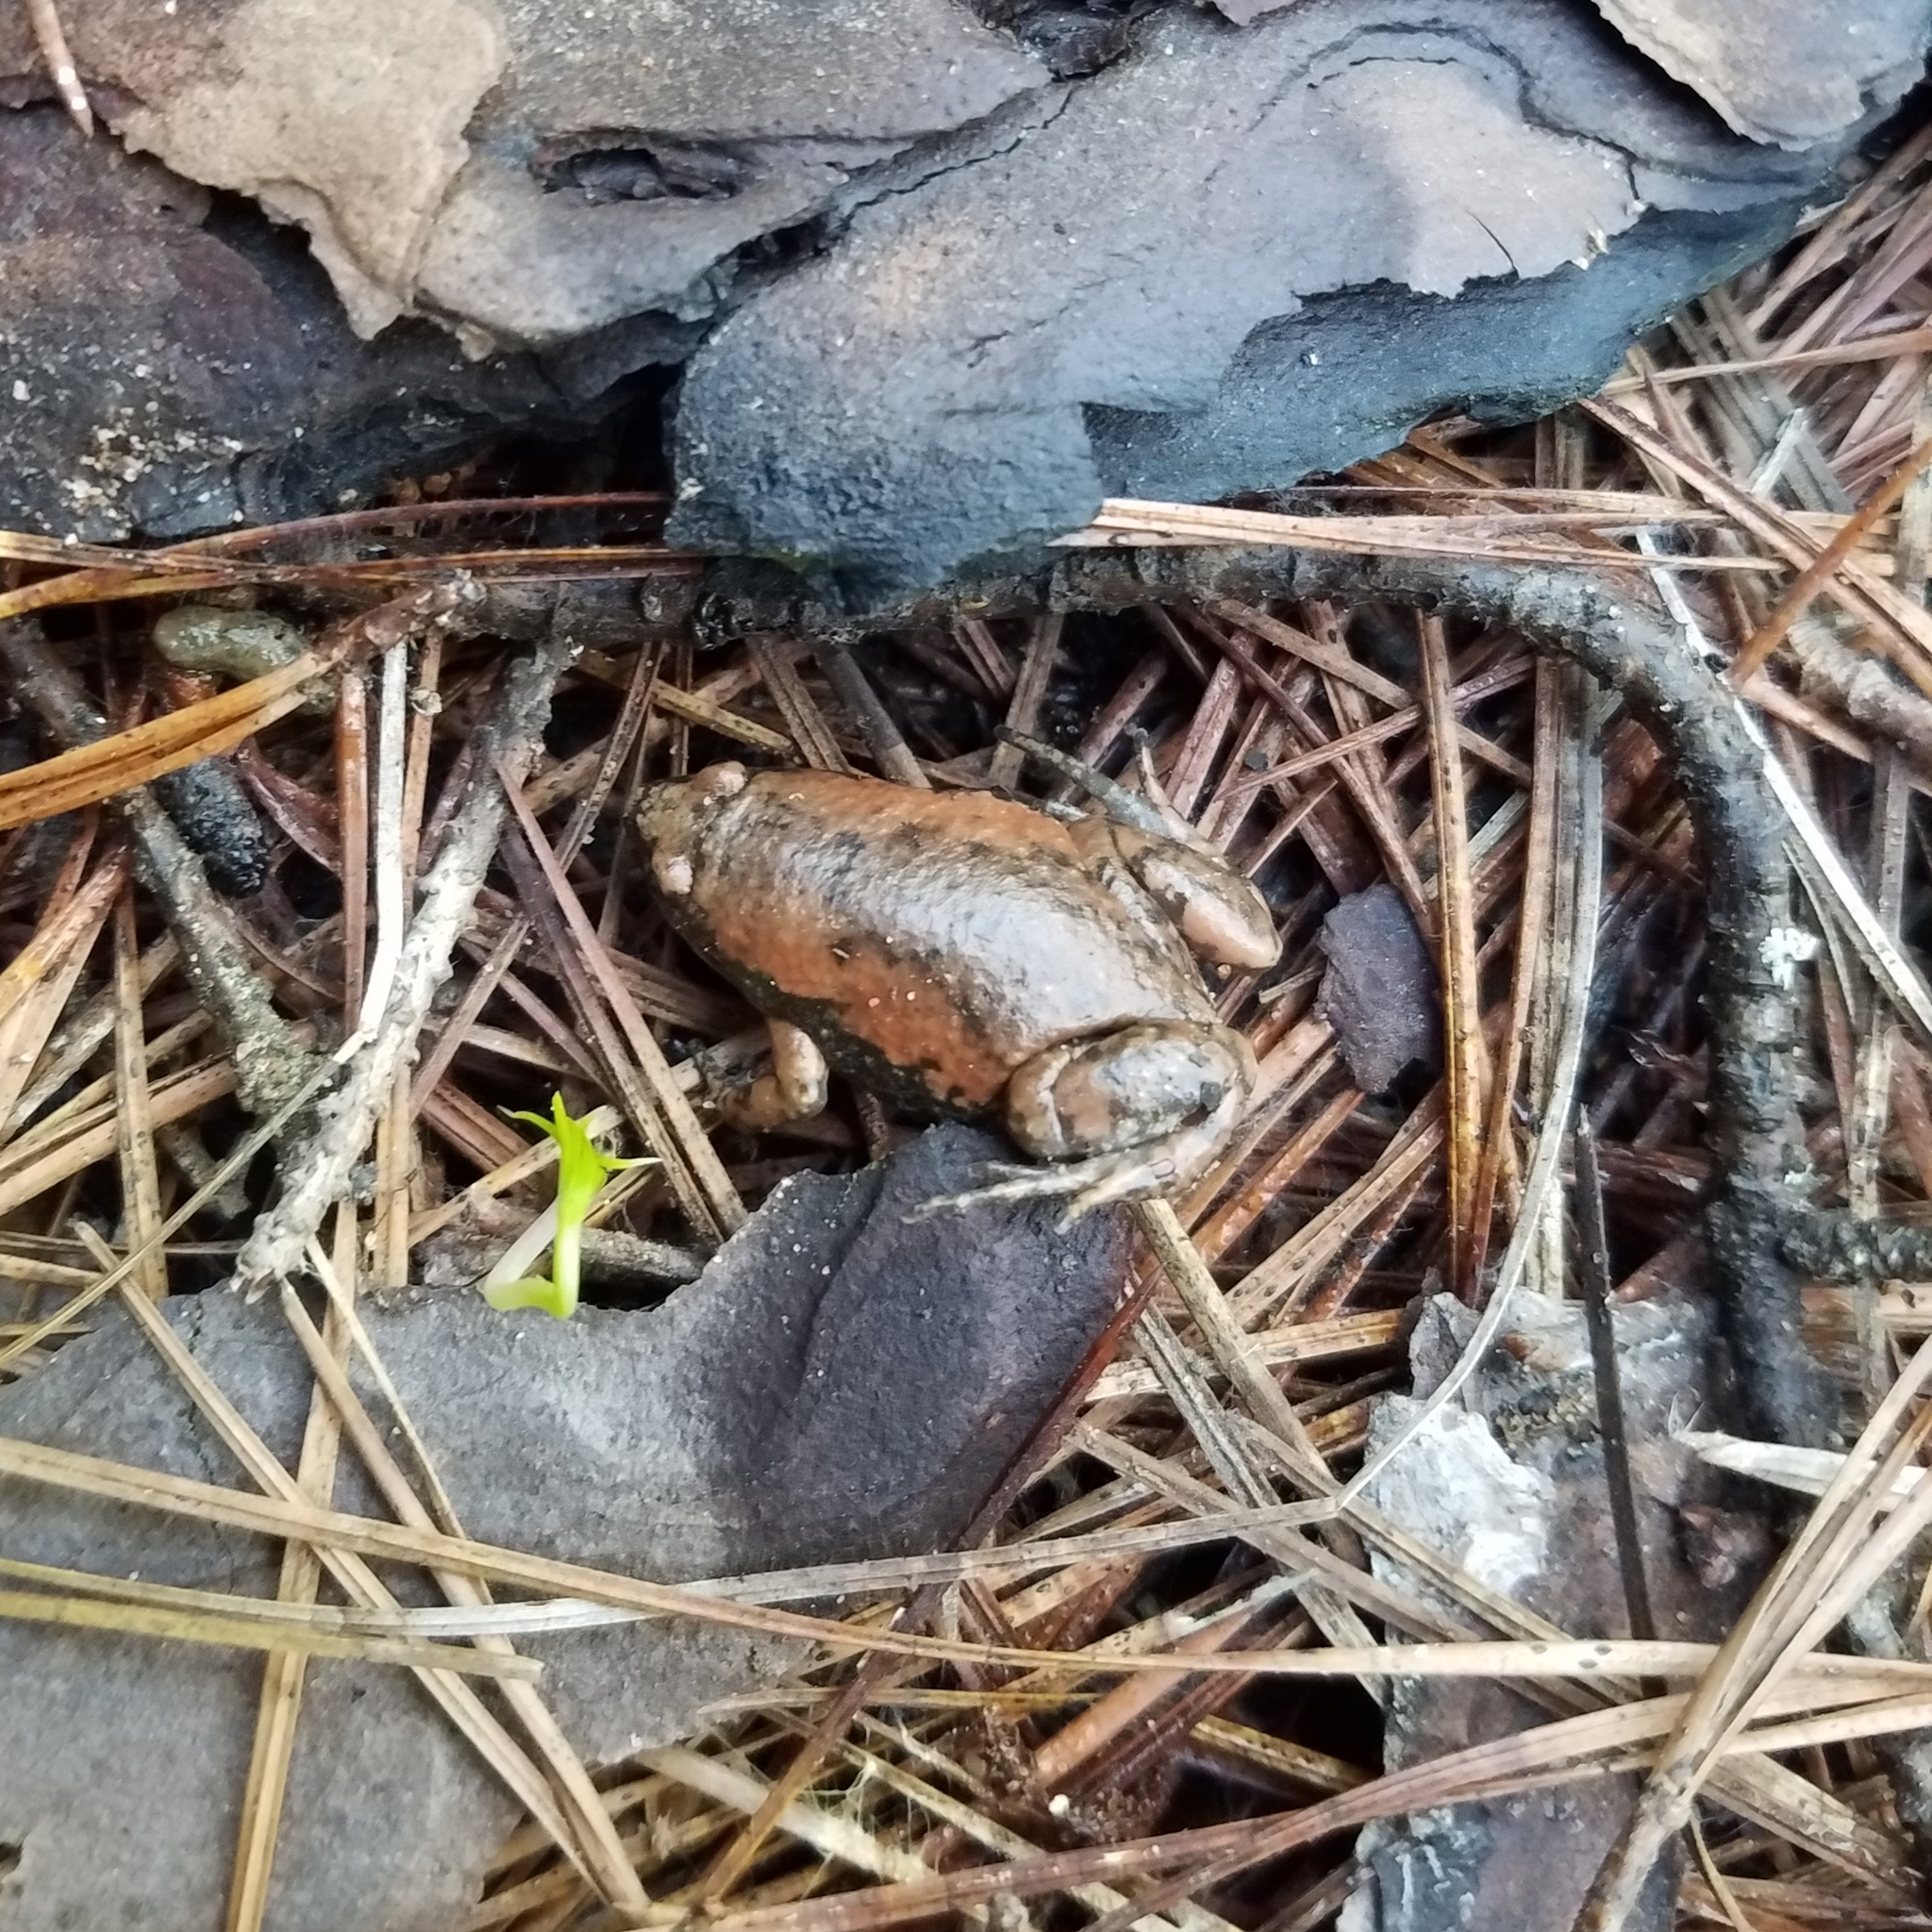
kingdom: Animalia
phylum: Chordata
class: Amphibia
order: Anura
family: Microhylidae
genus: Gastrophryne
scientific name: Gastrophryne carolinensis
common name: Eastern narrowmouth toad
